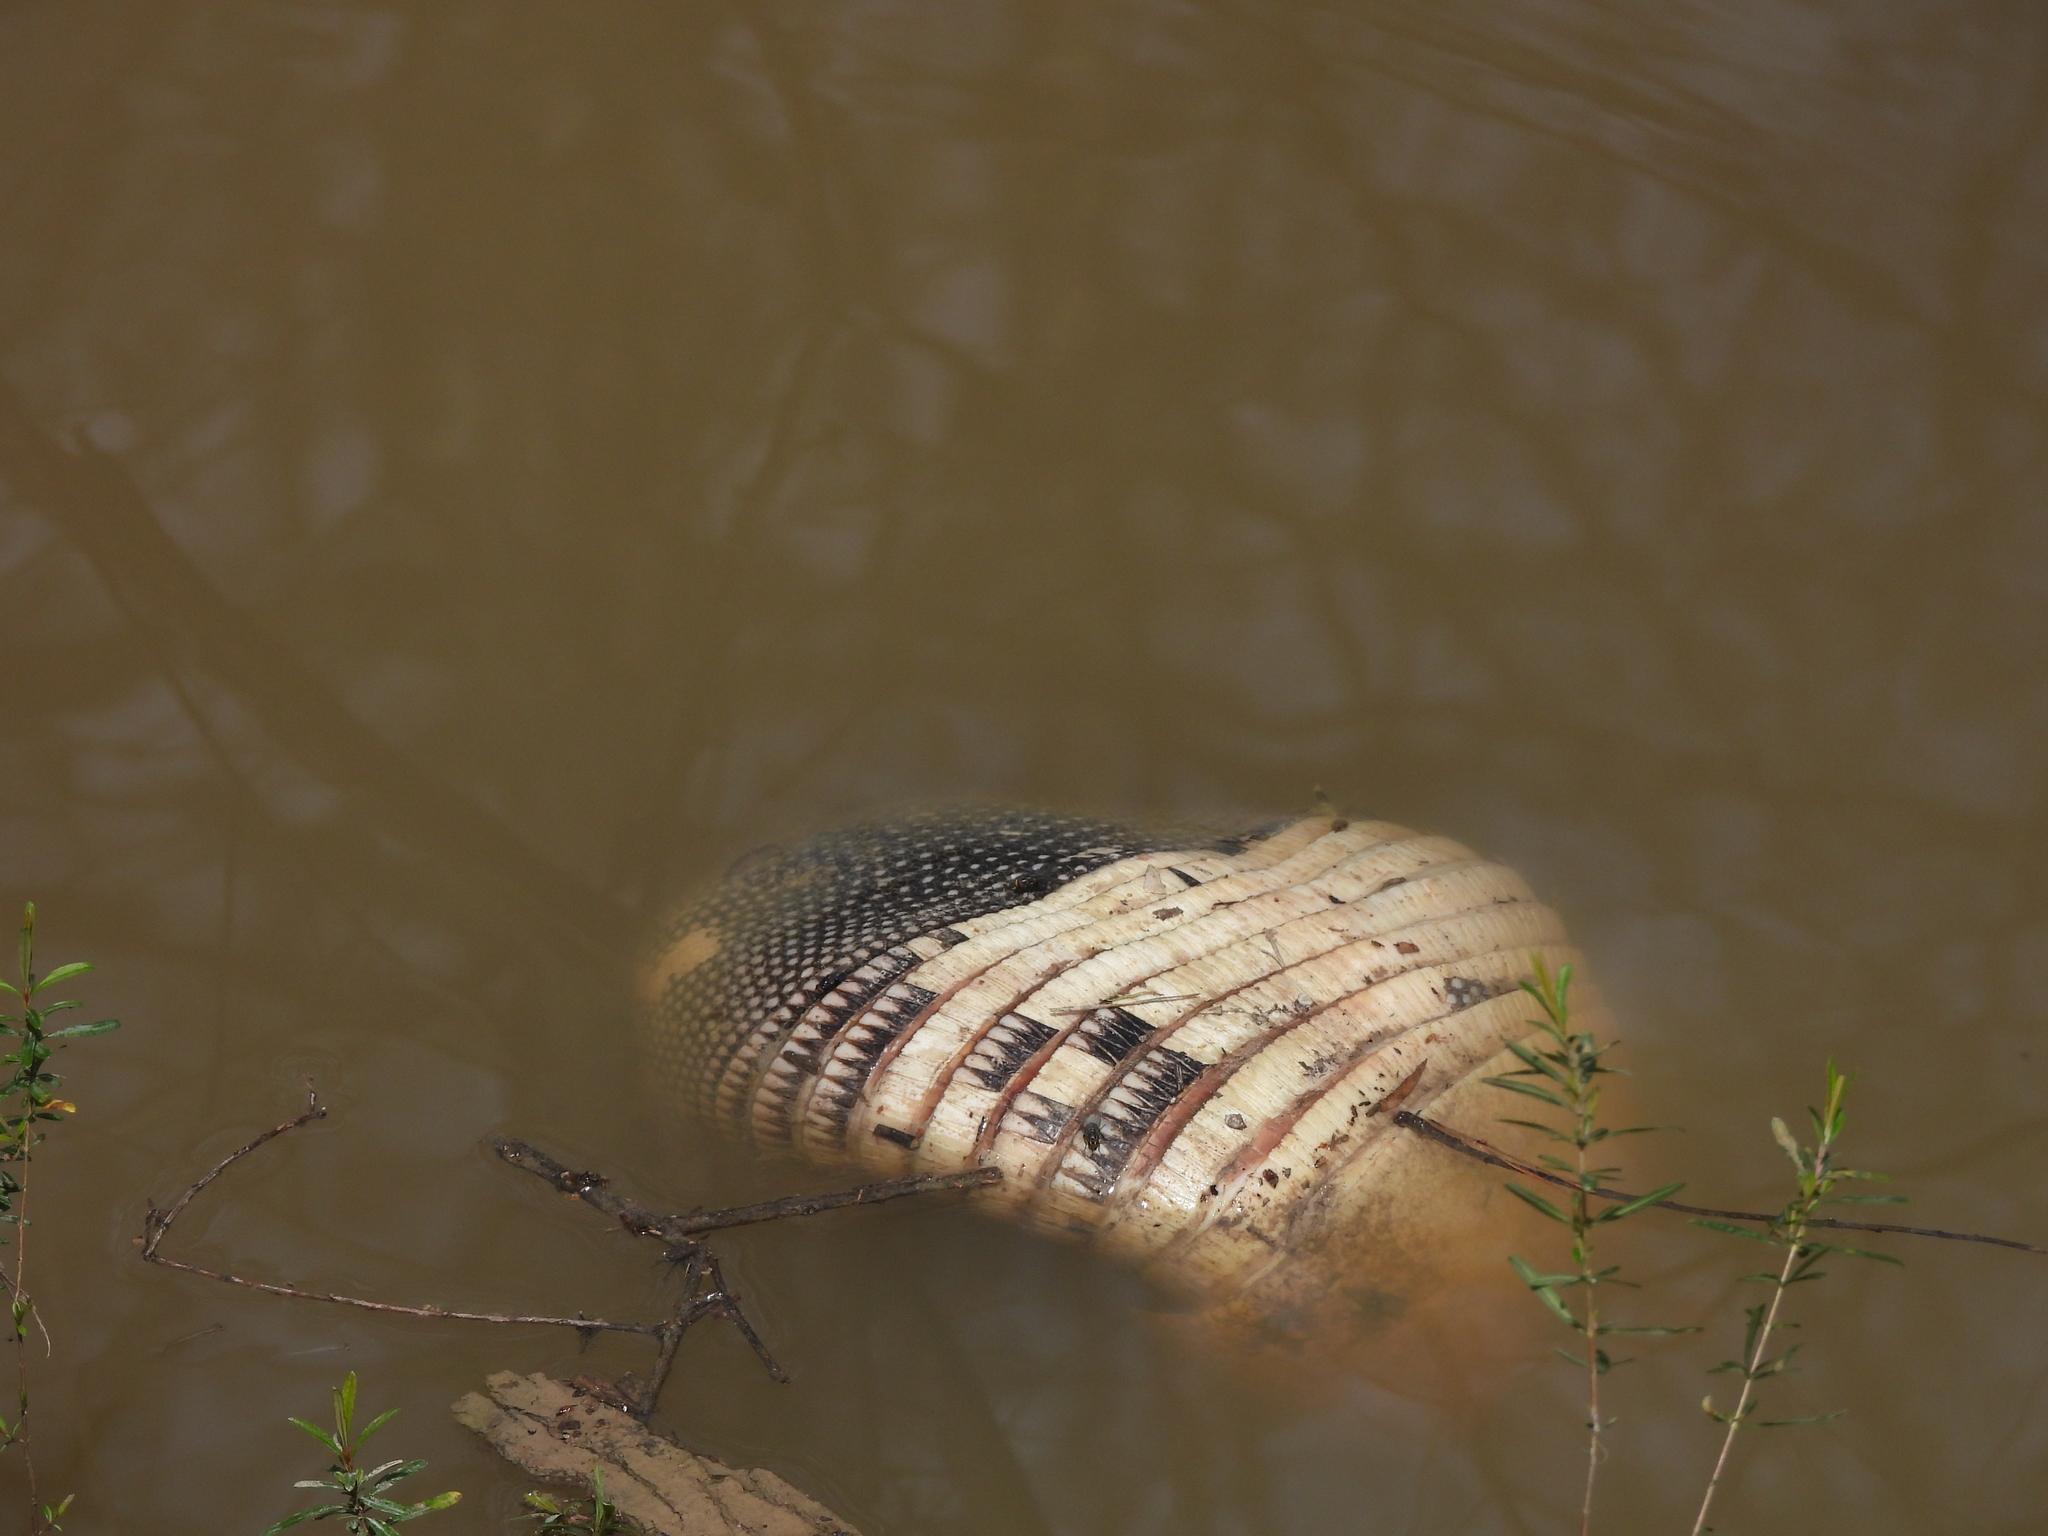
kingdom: Animalia
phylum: Chordata
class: Mammalia
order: Cingulata
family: Dasypodidae
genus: Dasypus
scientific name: Dasypus novemcinctus
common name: Nine-banded armadillo
